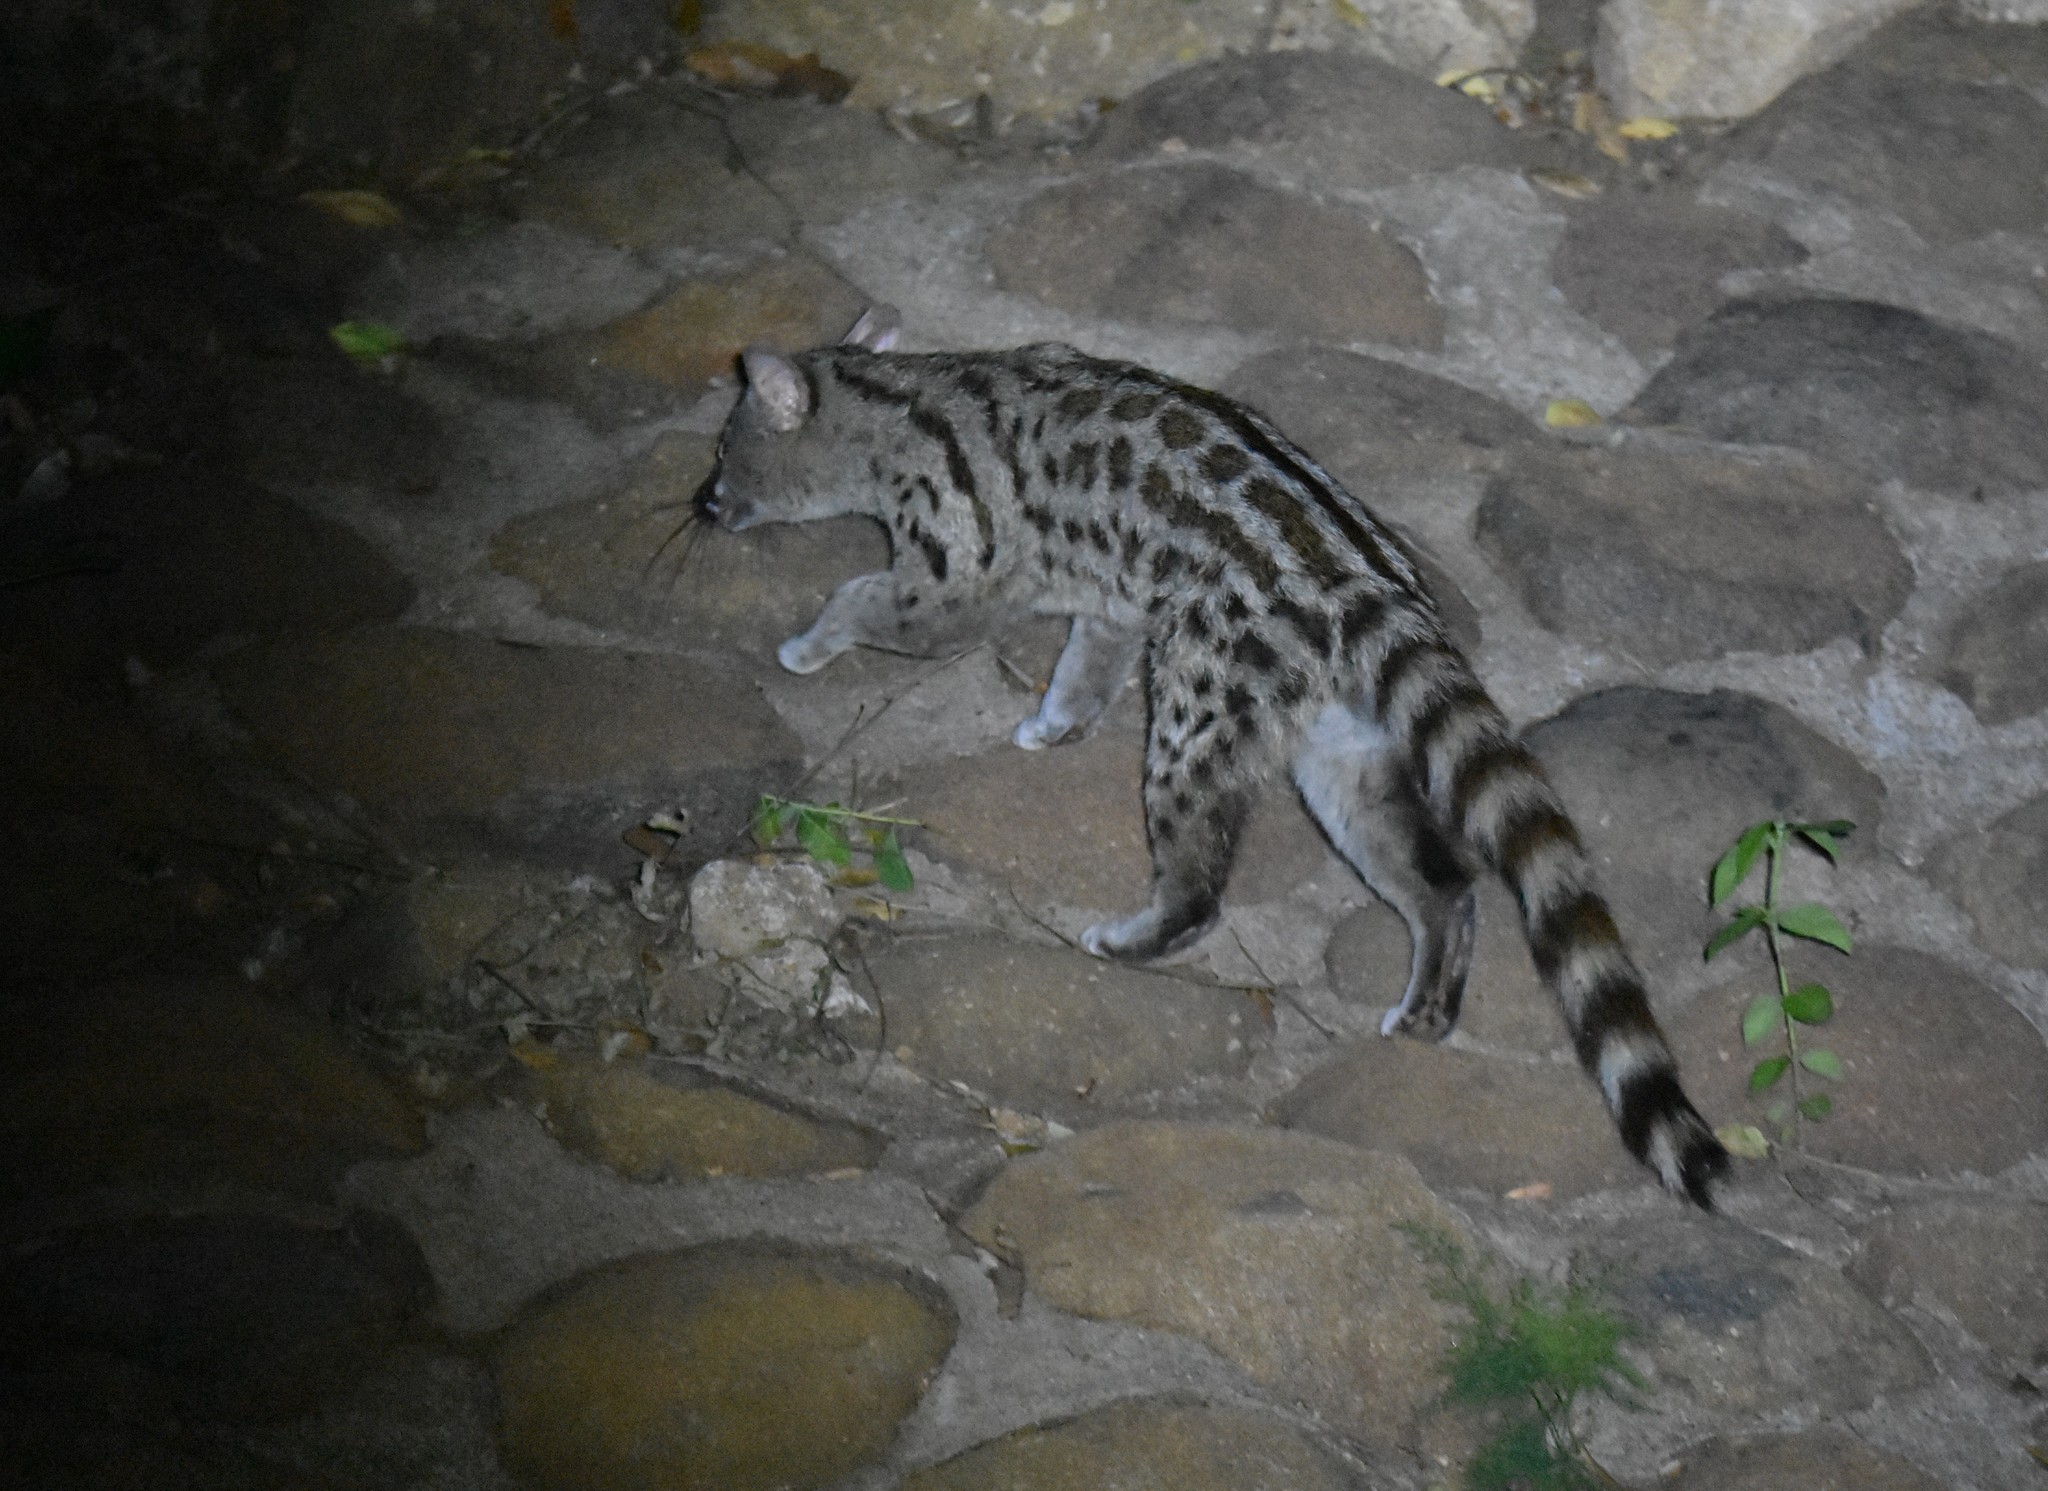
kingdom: Animalia
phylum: Chordata
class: Mammalia
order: Carnivora
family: Viverridae
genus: Genetta
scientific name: Genetta maculata
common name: Rusty-spotted genet
